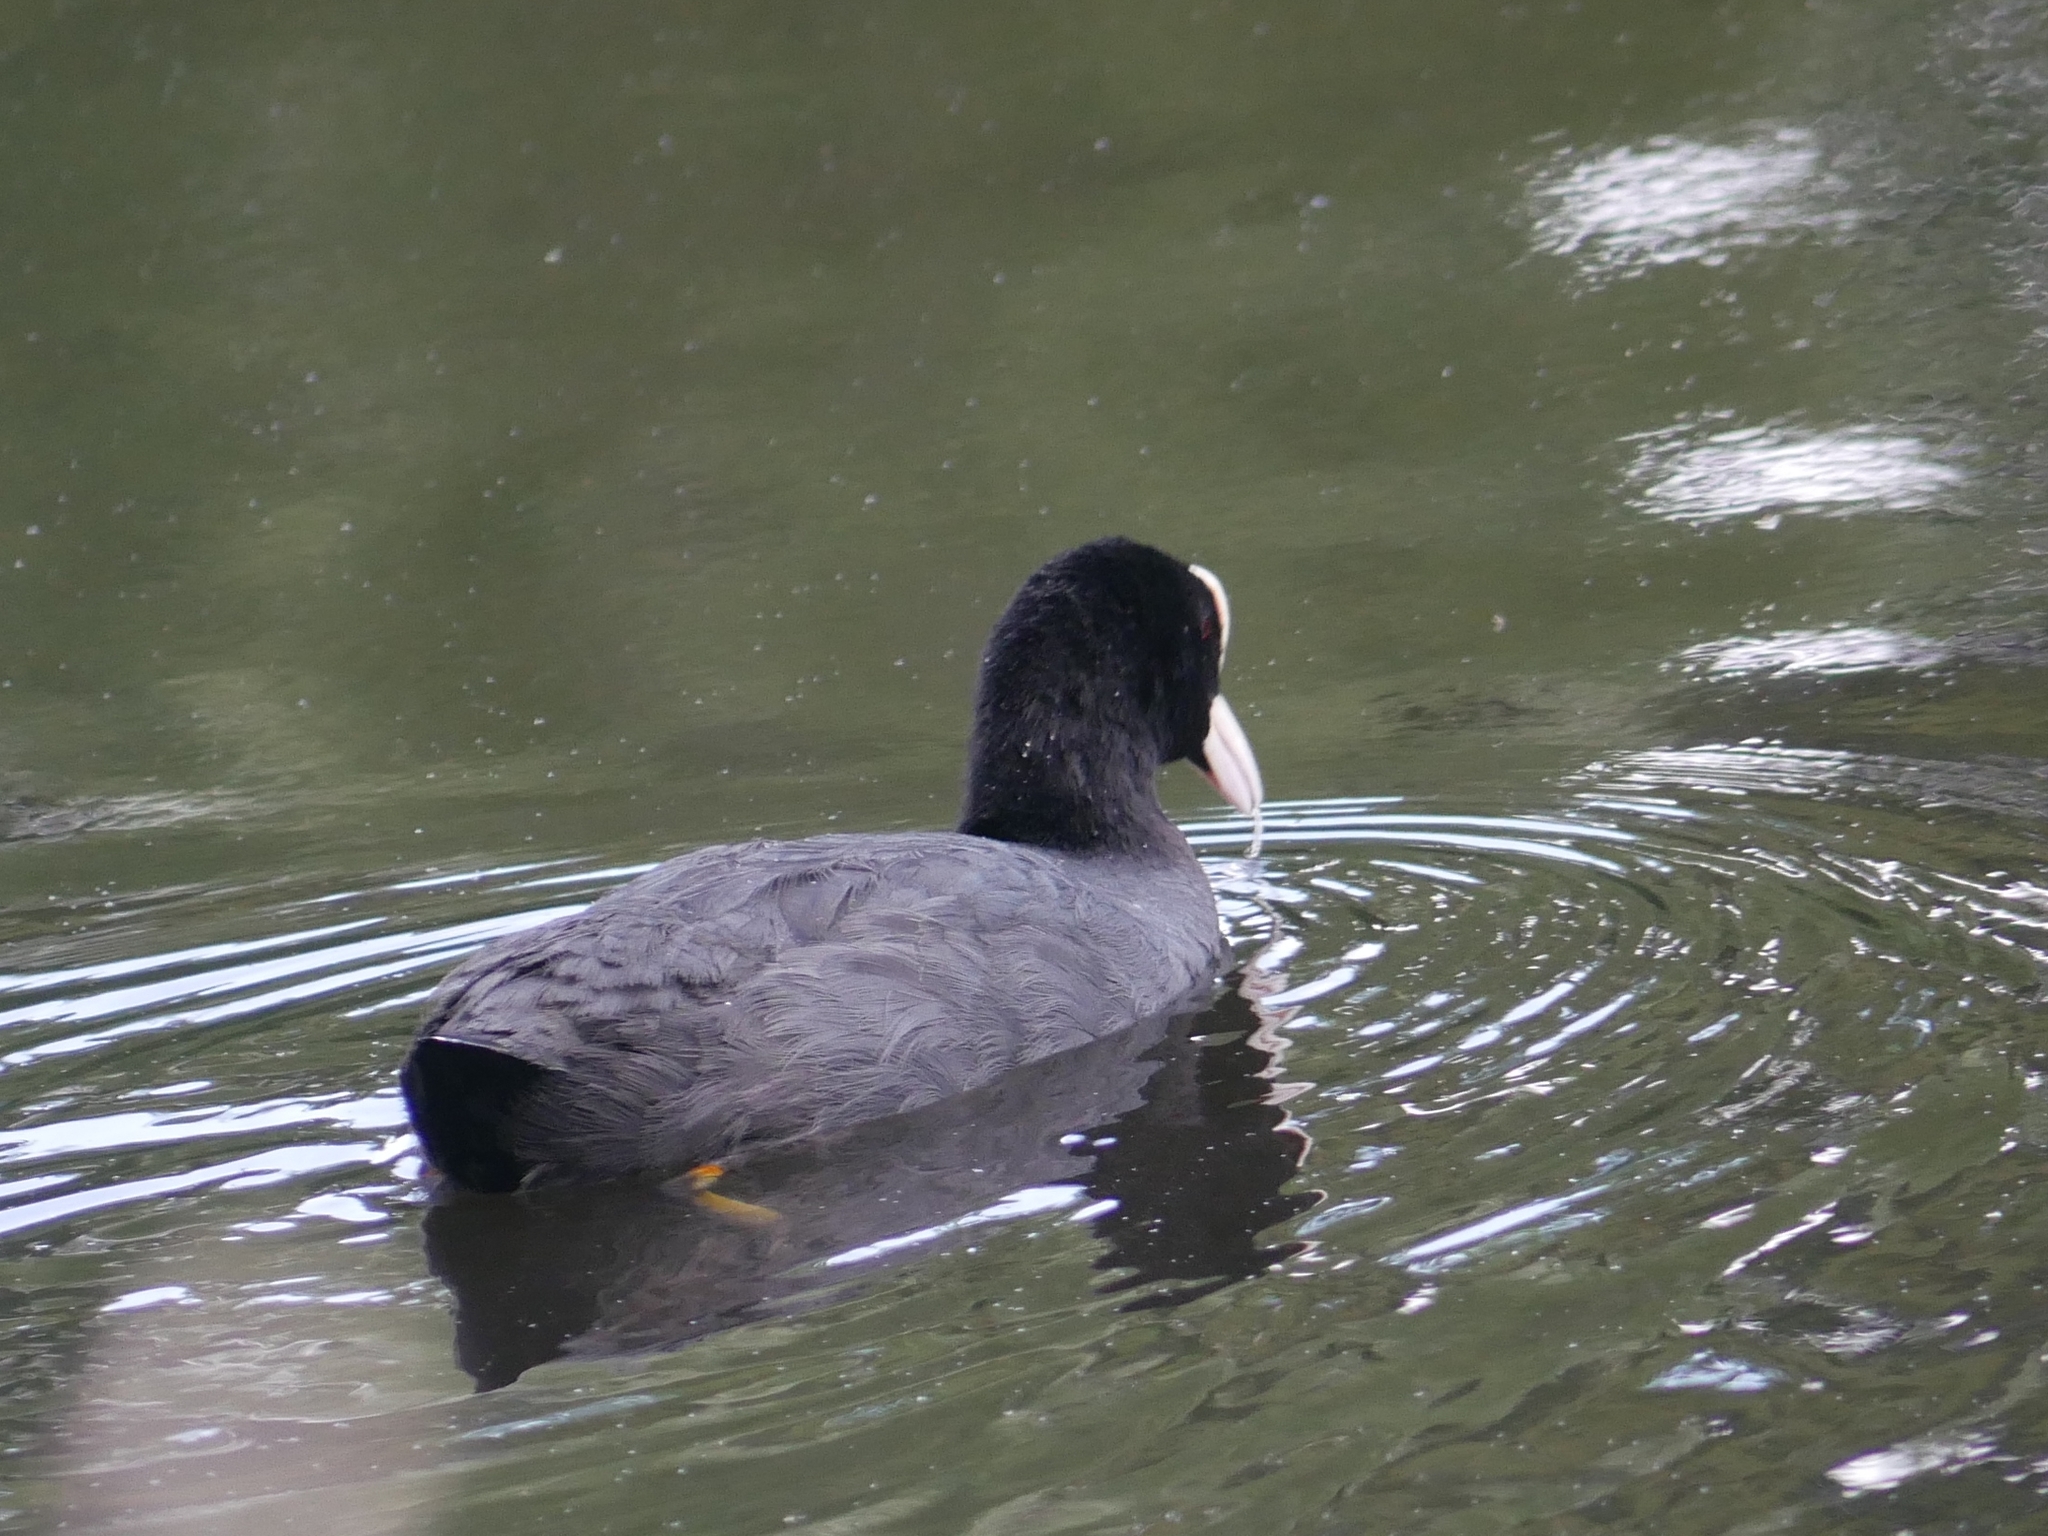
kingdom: Animalia
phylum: Chordata
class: Aves
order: Gruiformes
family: Rallidae
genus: Fulica
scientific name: Fulica atra
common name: Eurasian coot
